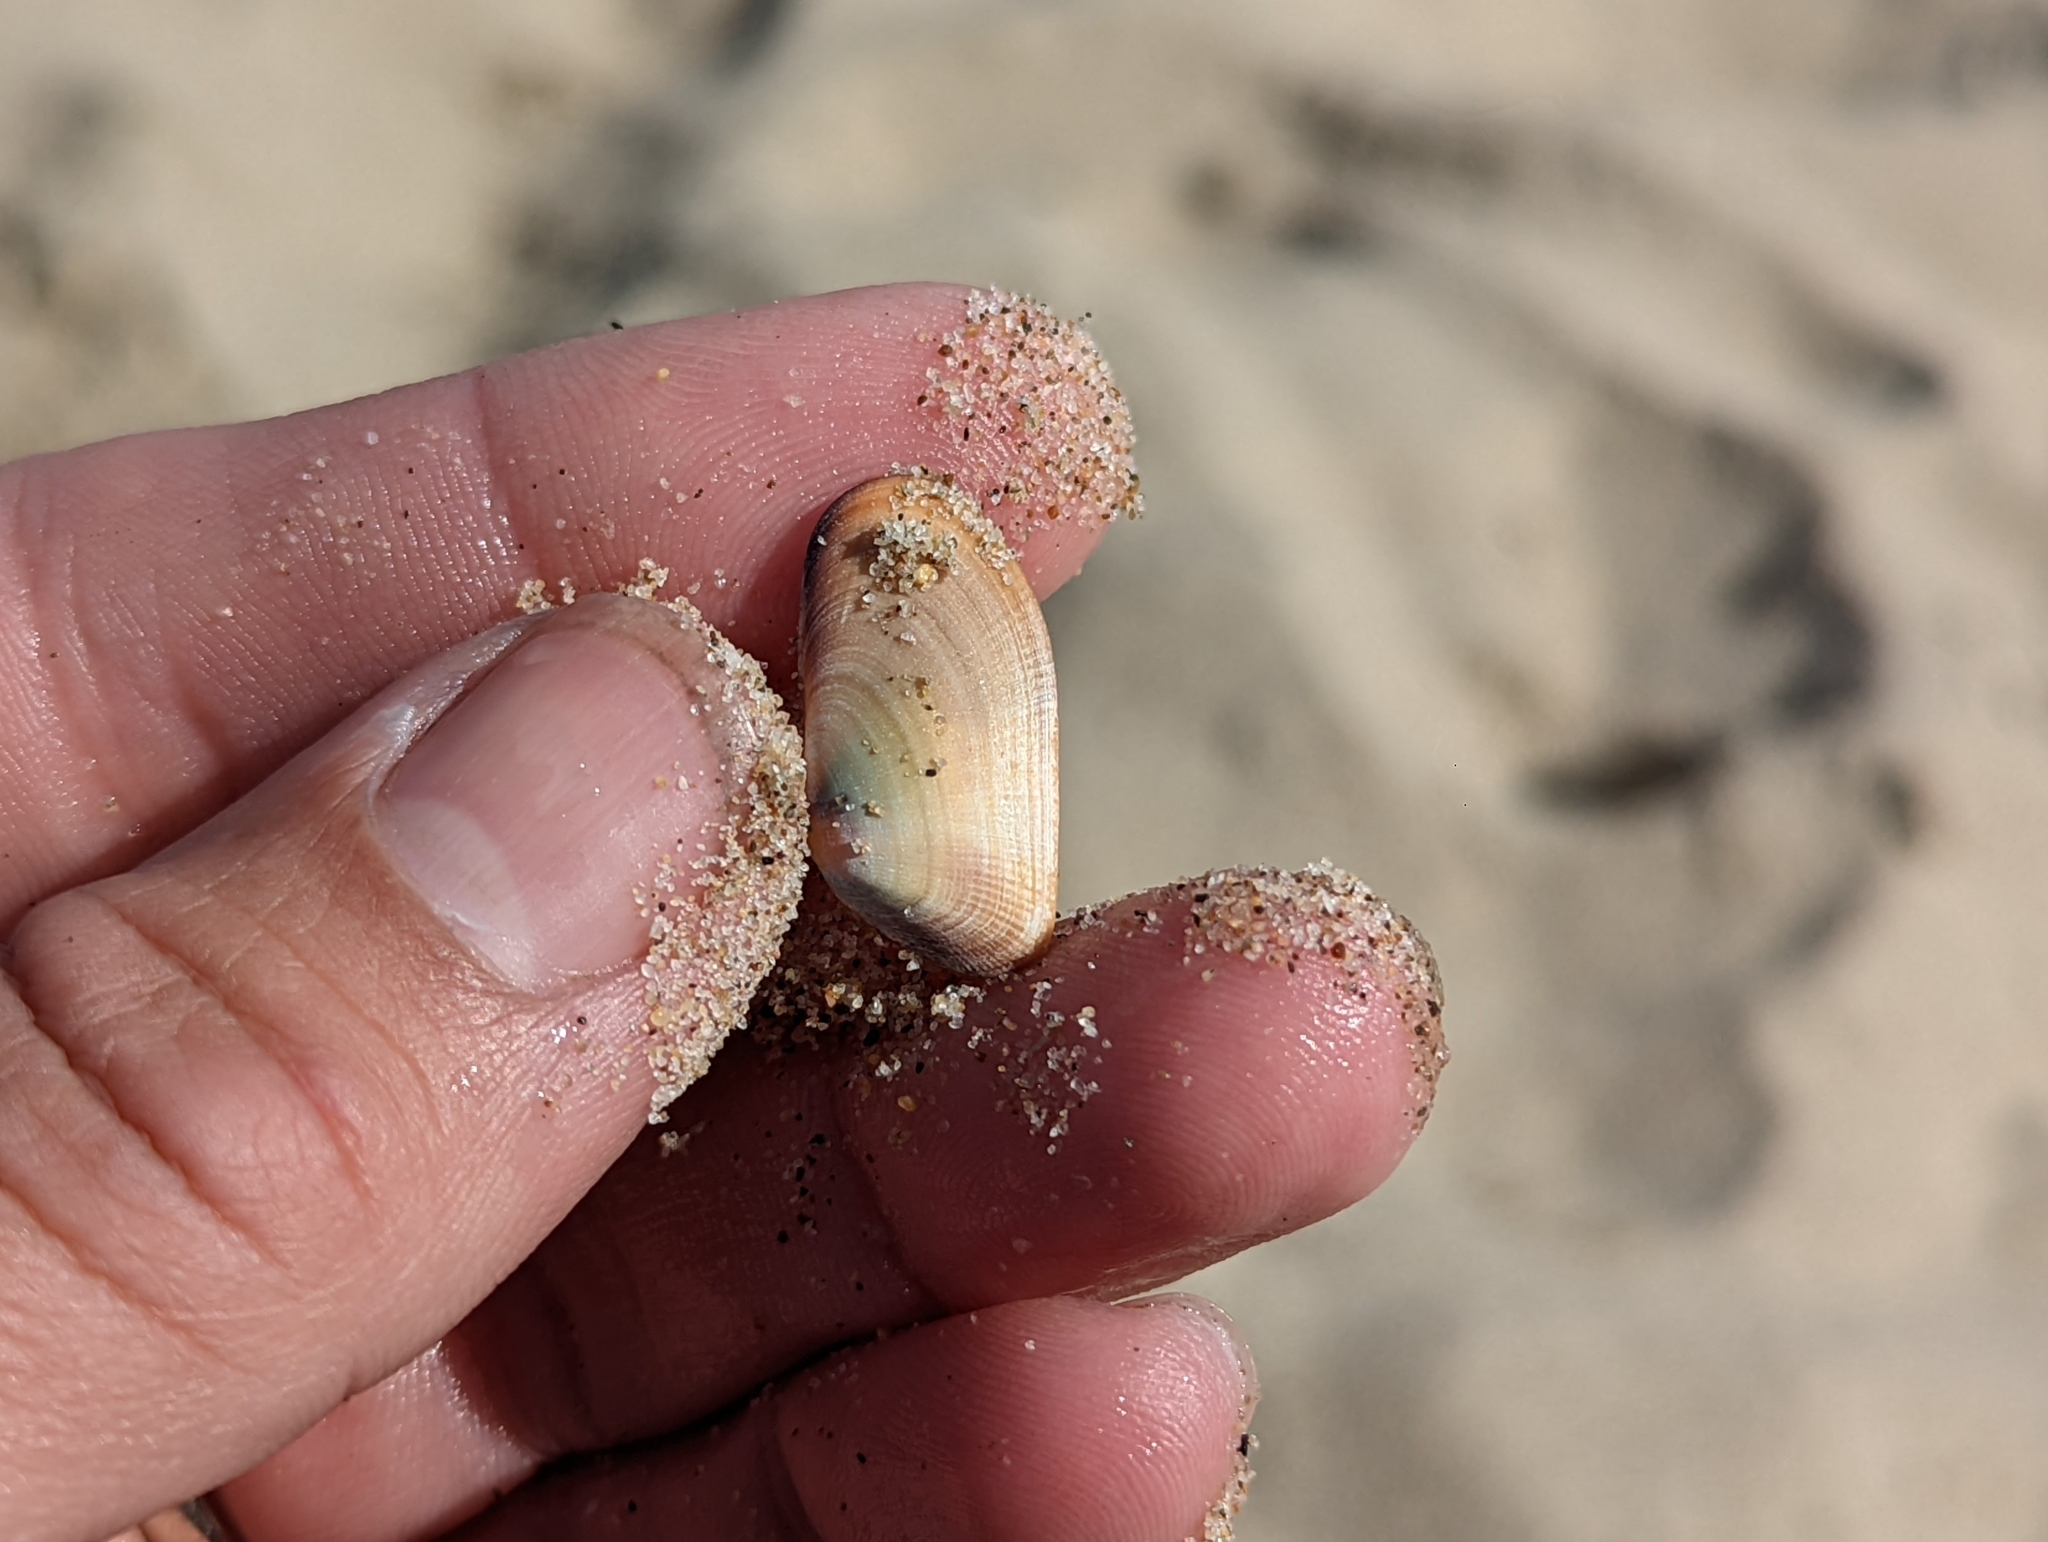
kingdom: Animalia
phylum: Mollusca
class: Bivalvia
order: Cardiida
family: Donacidae
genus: Donax
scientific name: Donax gouldii
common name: Gould beanclam
